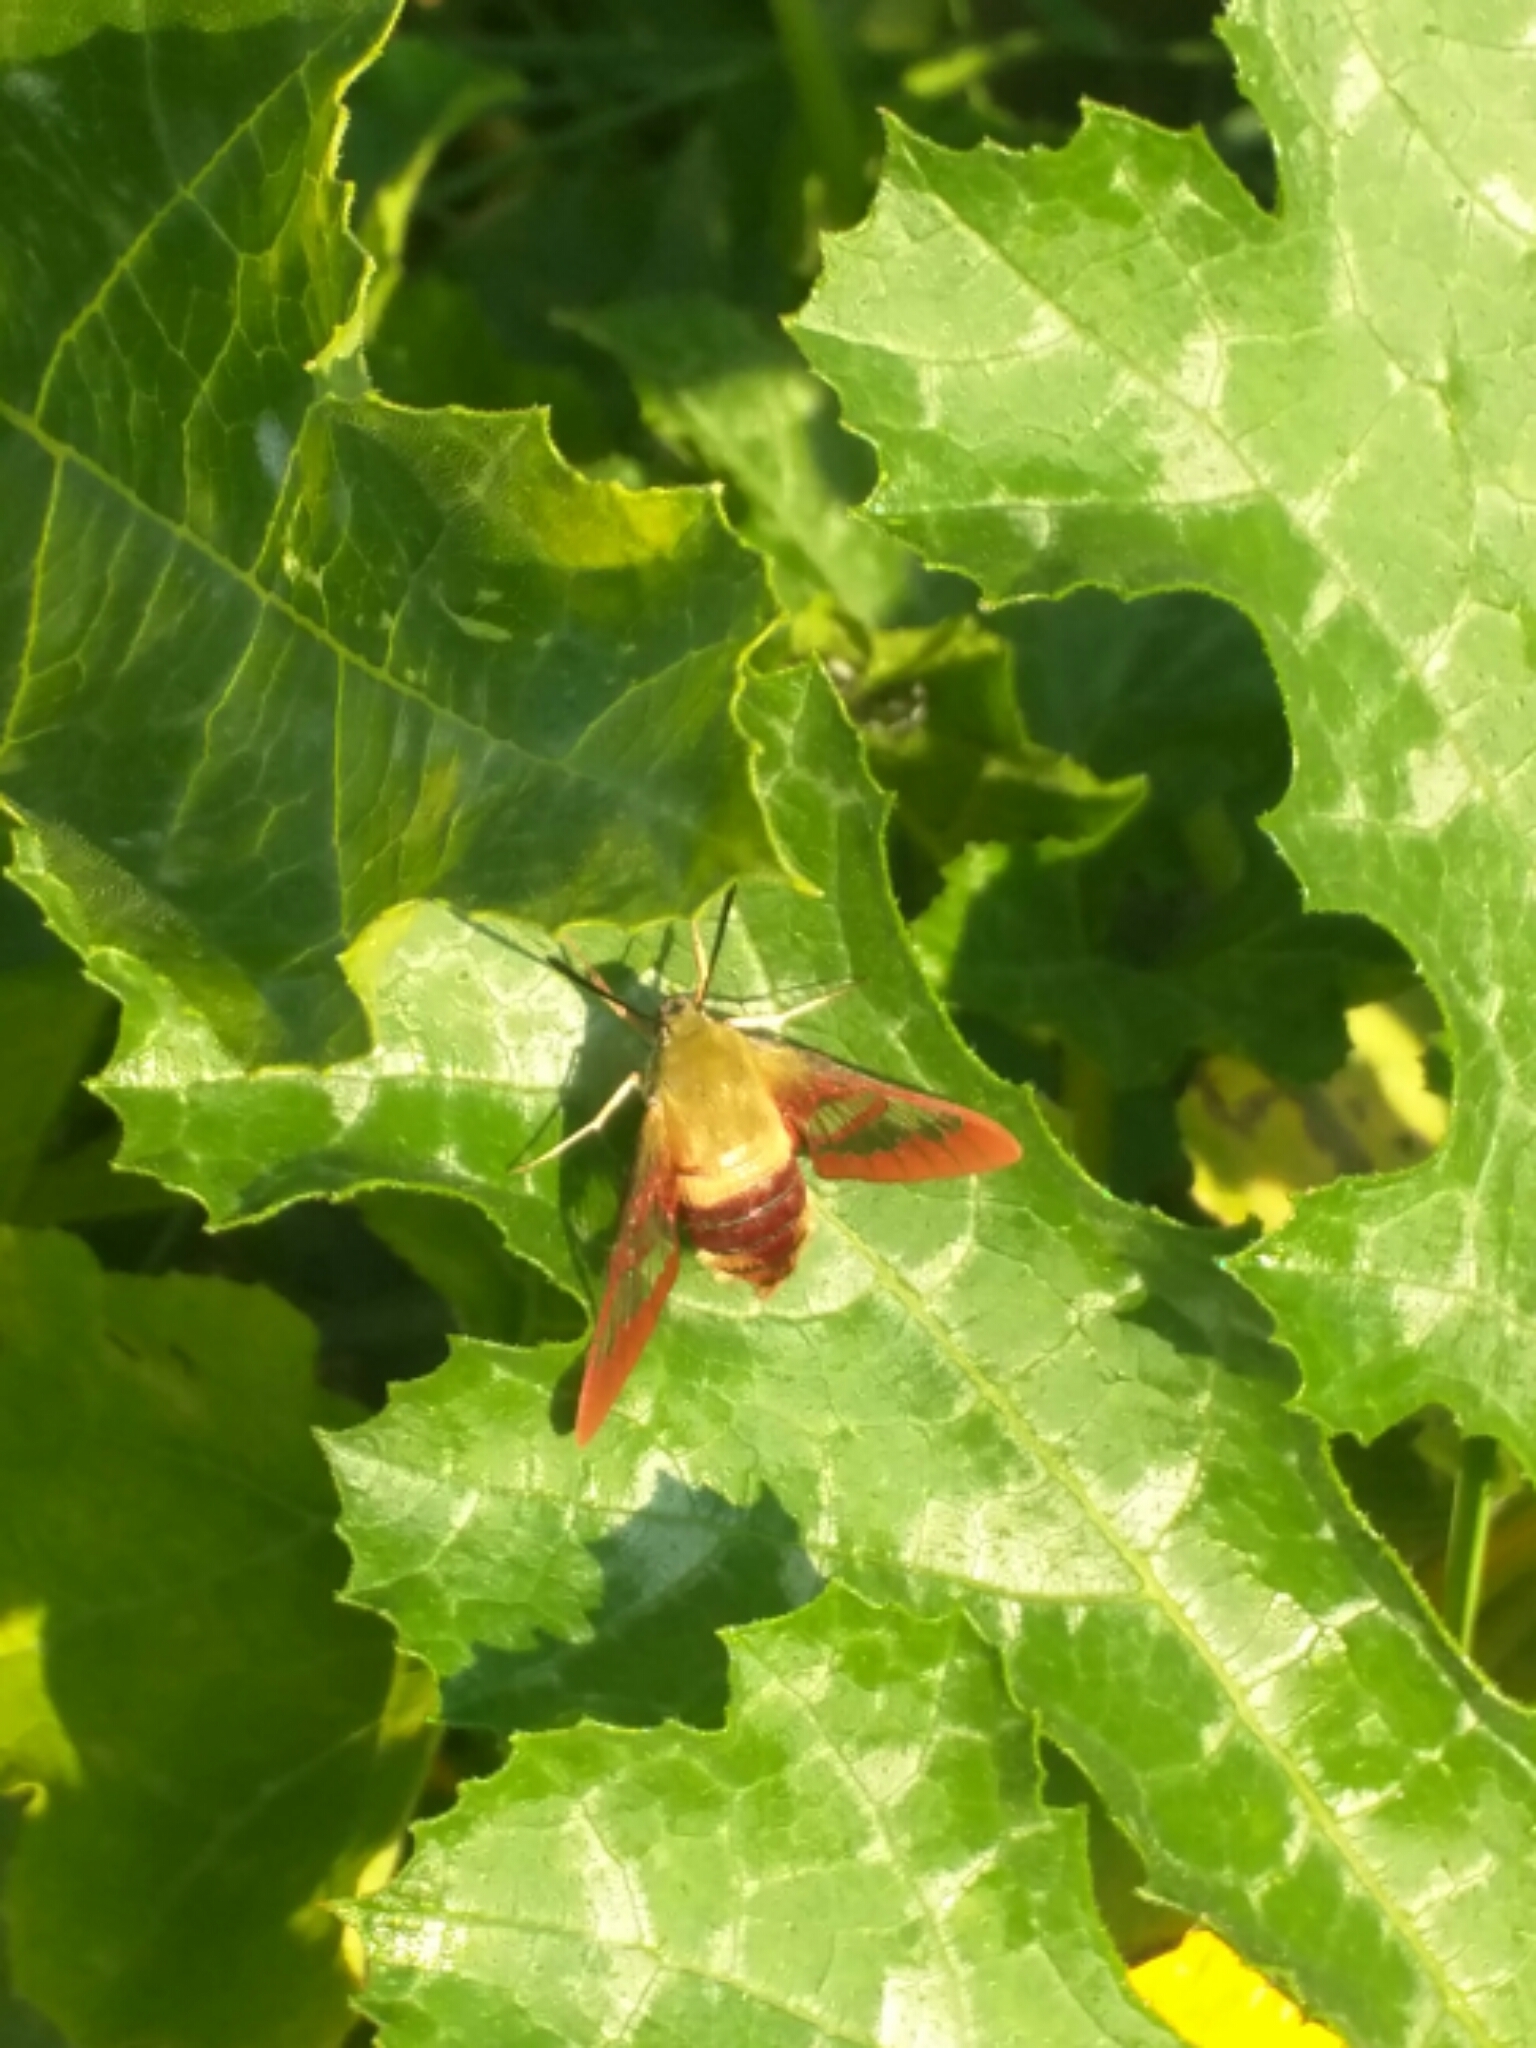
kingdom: Animalia
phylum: Arthropoda
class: Insecta
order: Lepidoptera
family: Sphingidae
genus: Hemaris
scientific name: Hemaris thysbe
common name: Common clear-wing
